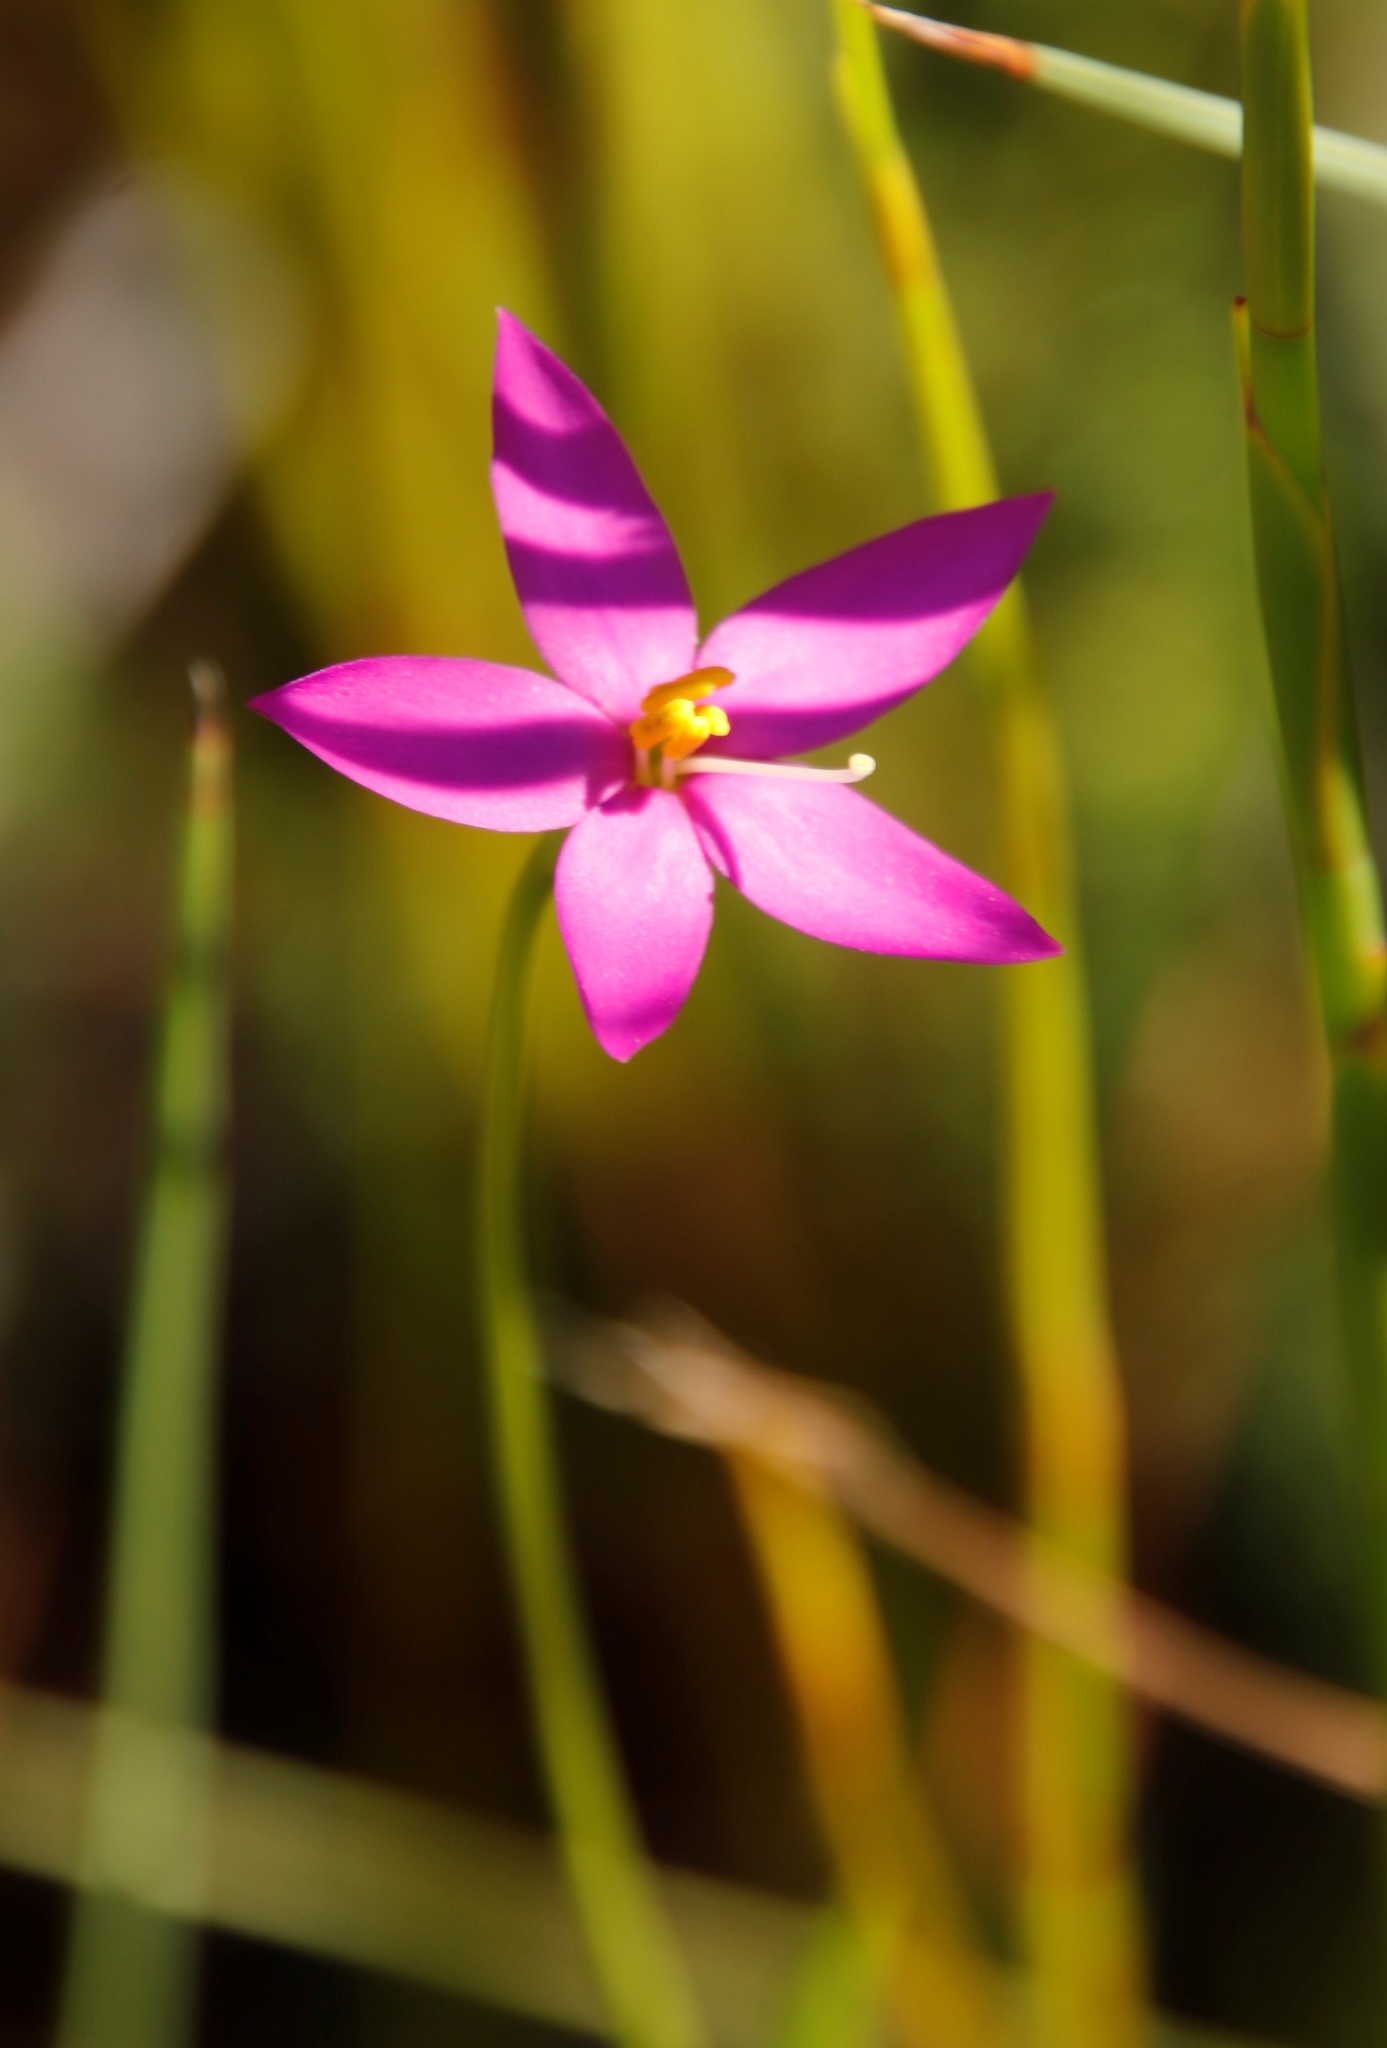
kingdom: Plantae
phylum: Tracheophyta
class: Magnoliopsida
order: Gentianales
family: Gentianaceae
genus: Chironia
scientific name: Chironia jasminoides
